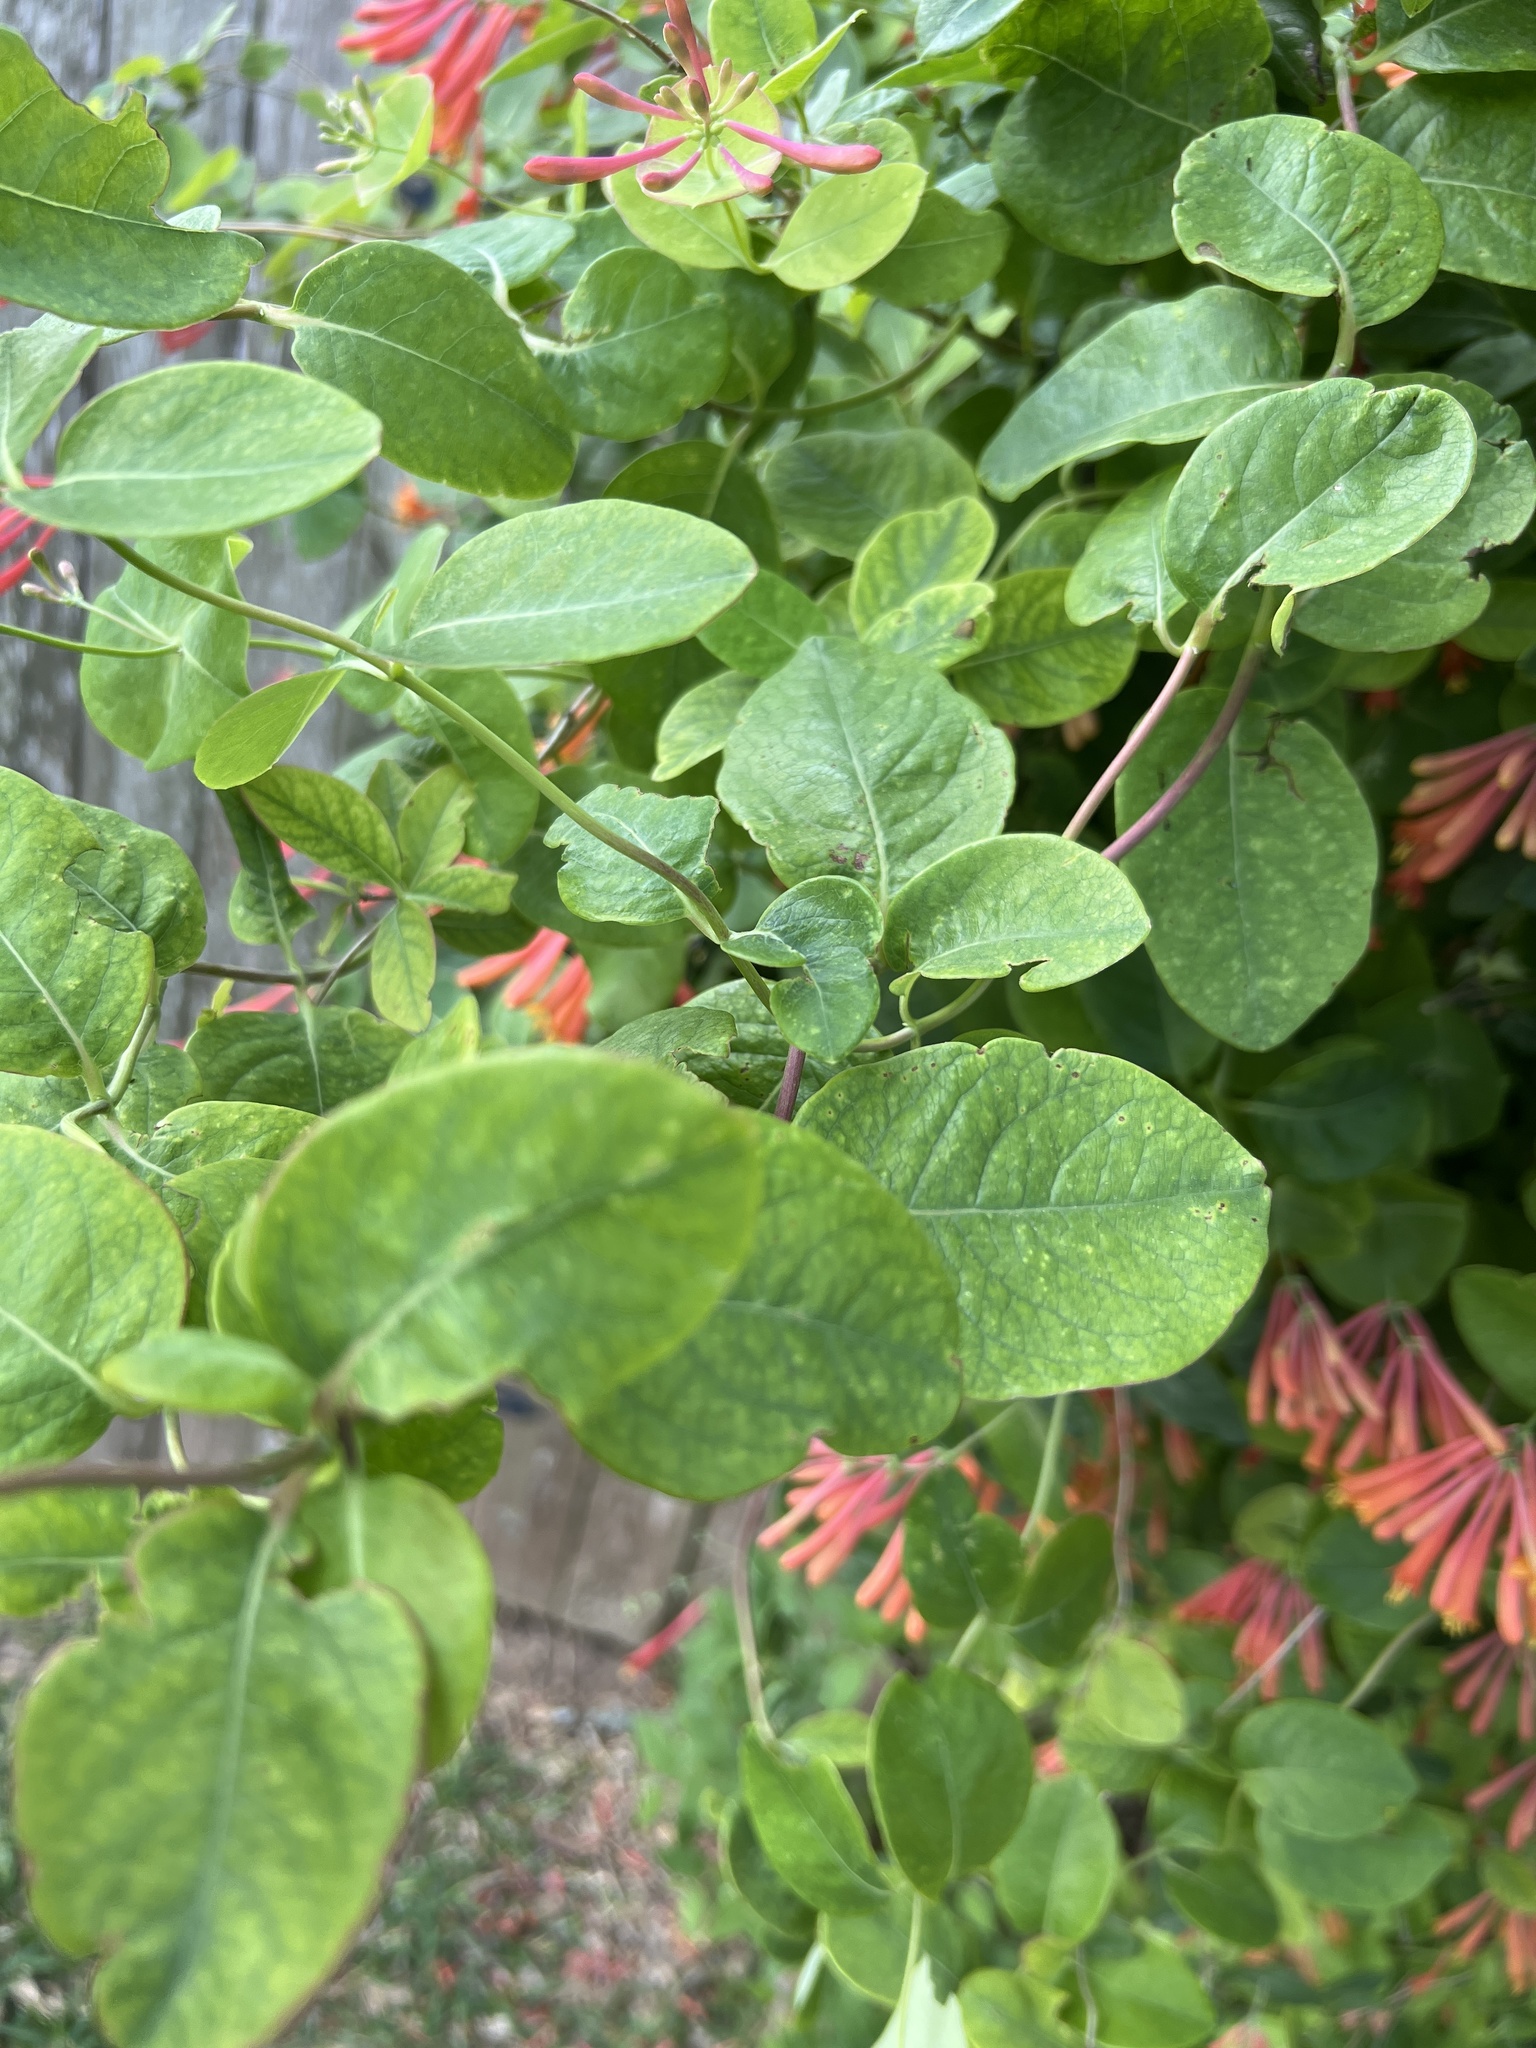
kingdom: Plantae
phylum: Tracheophyta
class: Magnoliopsida
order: Dipsacales
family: Caprifoliaceae
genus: Lonicera
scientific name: Lonicera sempervirens
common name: Coral honeysuckle
